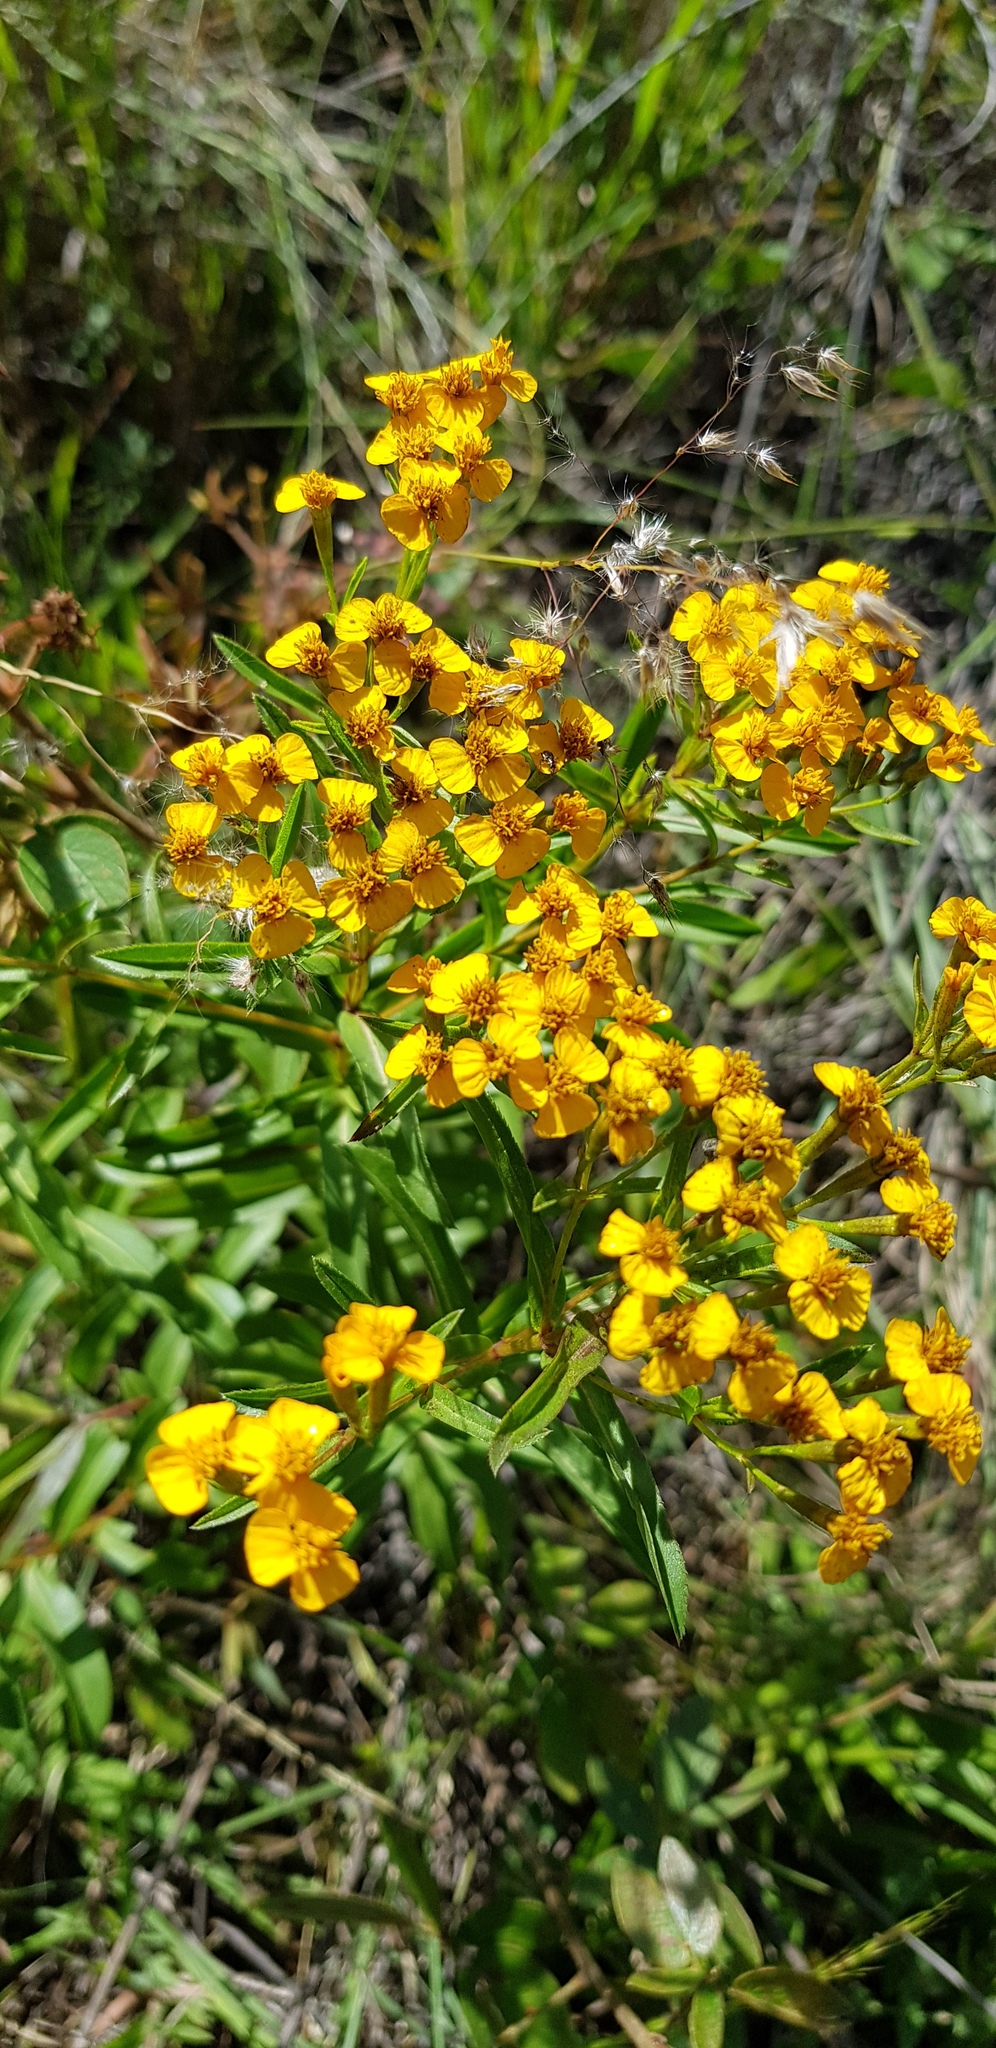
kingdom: Plantae
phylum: Tracheophyta
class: Magnoliopsida
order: Asterales
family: Asteraceae
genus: Tagetes
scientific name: Tagetes lucida
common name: Sweetscented marigold
